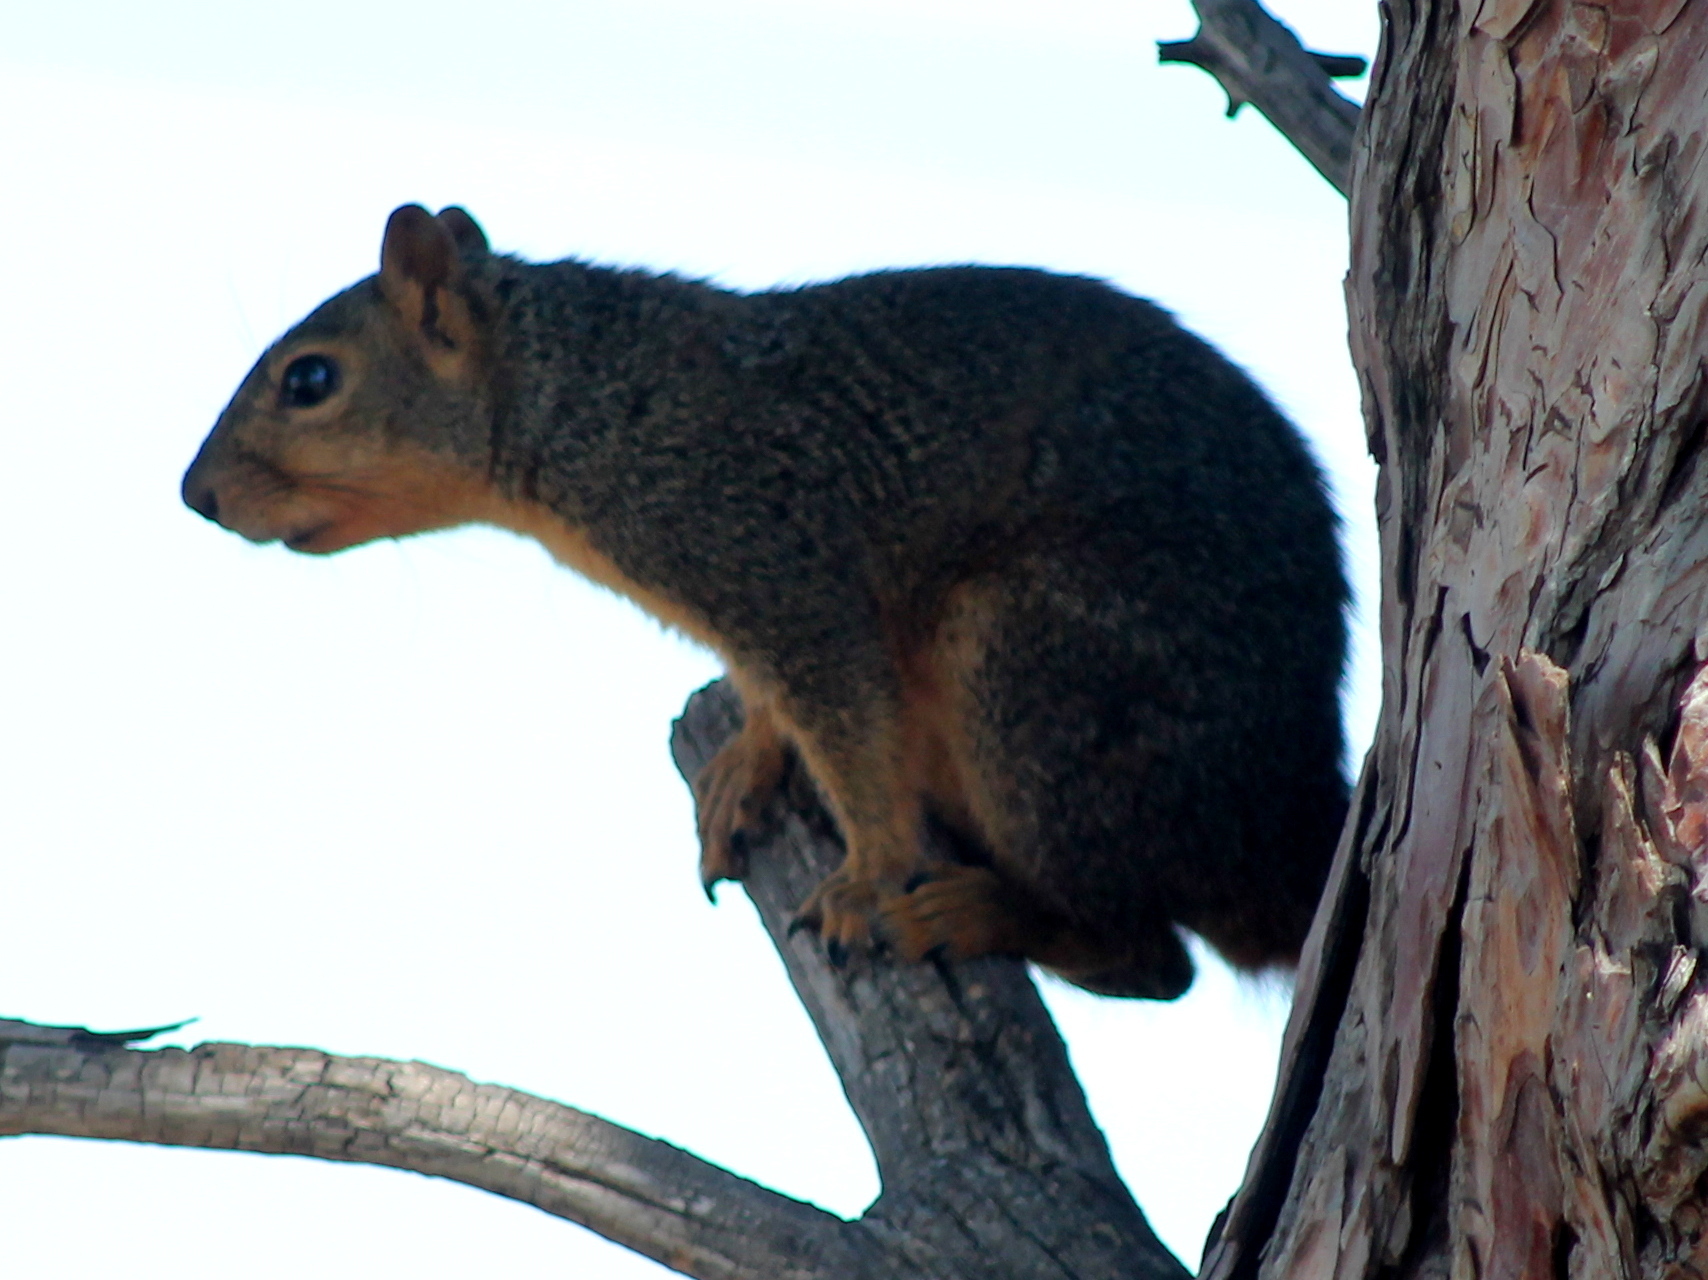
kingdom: Animalia
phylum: Chordata
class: Mammalia
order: Rodentia
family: Sciuridae
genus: Sciurus
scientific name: Sciurus niger
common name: Fox squirrel
